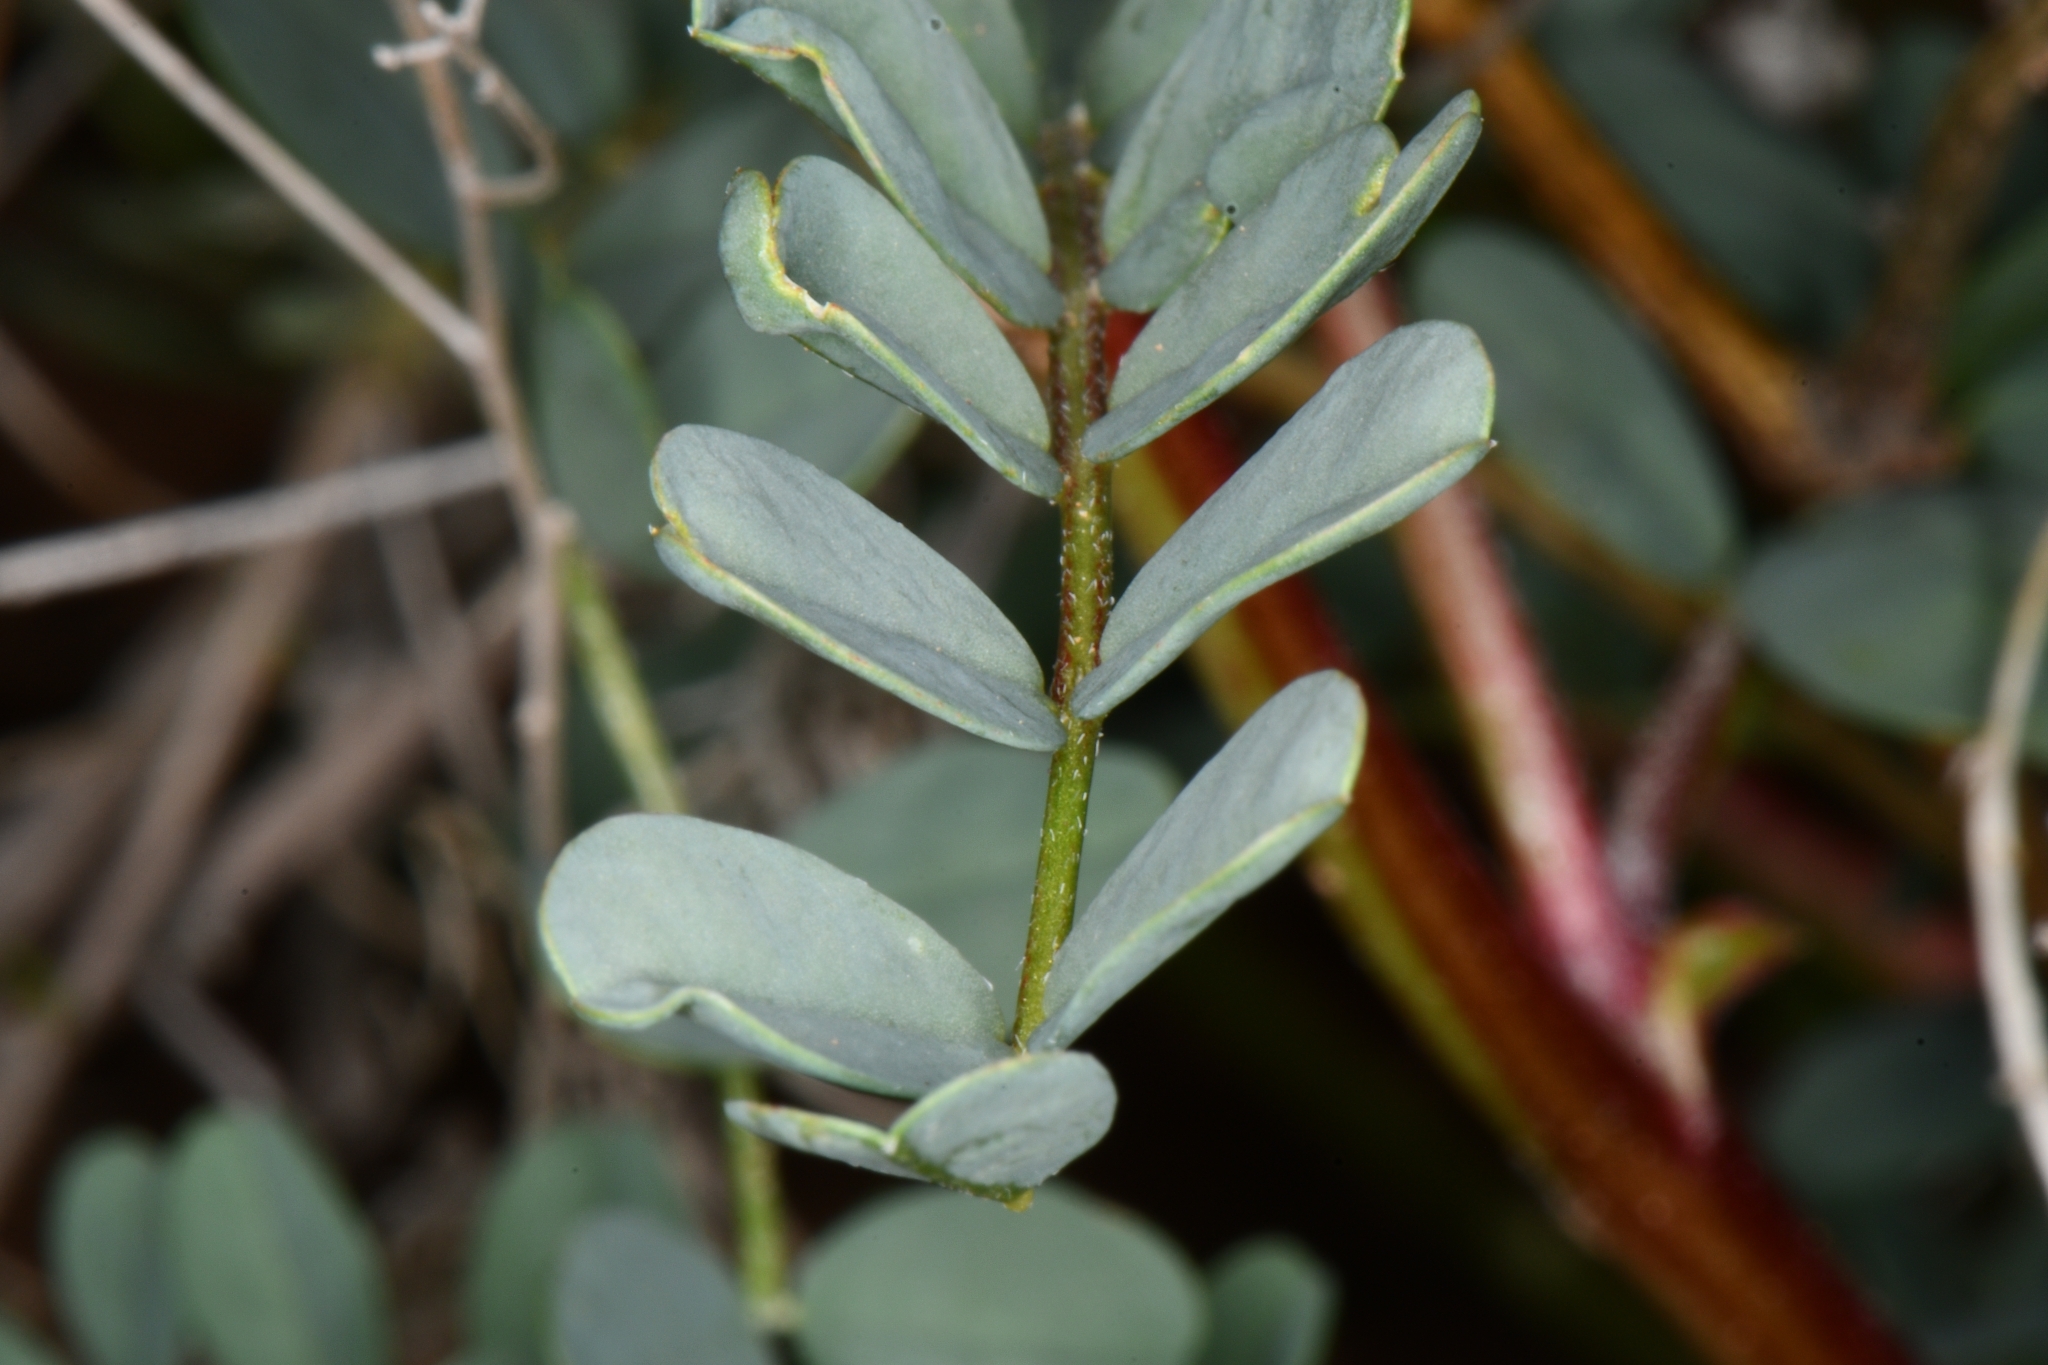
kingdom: Plantae
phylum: Tracheophyta
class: Magnoliopsida
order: Fabales
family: Fabaceae
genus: Astragalus
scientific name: Astragalus lentiginosus
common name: Freckled milkvetch
